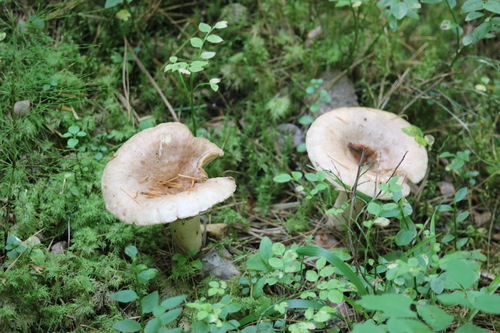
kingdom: Fungi
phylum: Basidiomycota
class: Agaricomycetes
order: Russulales
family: Russulaceae
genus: Lactarius
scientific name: Lactarius
